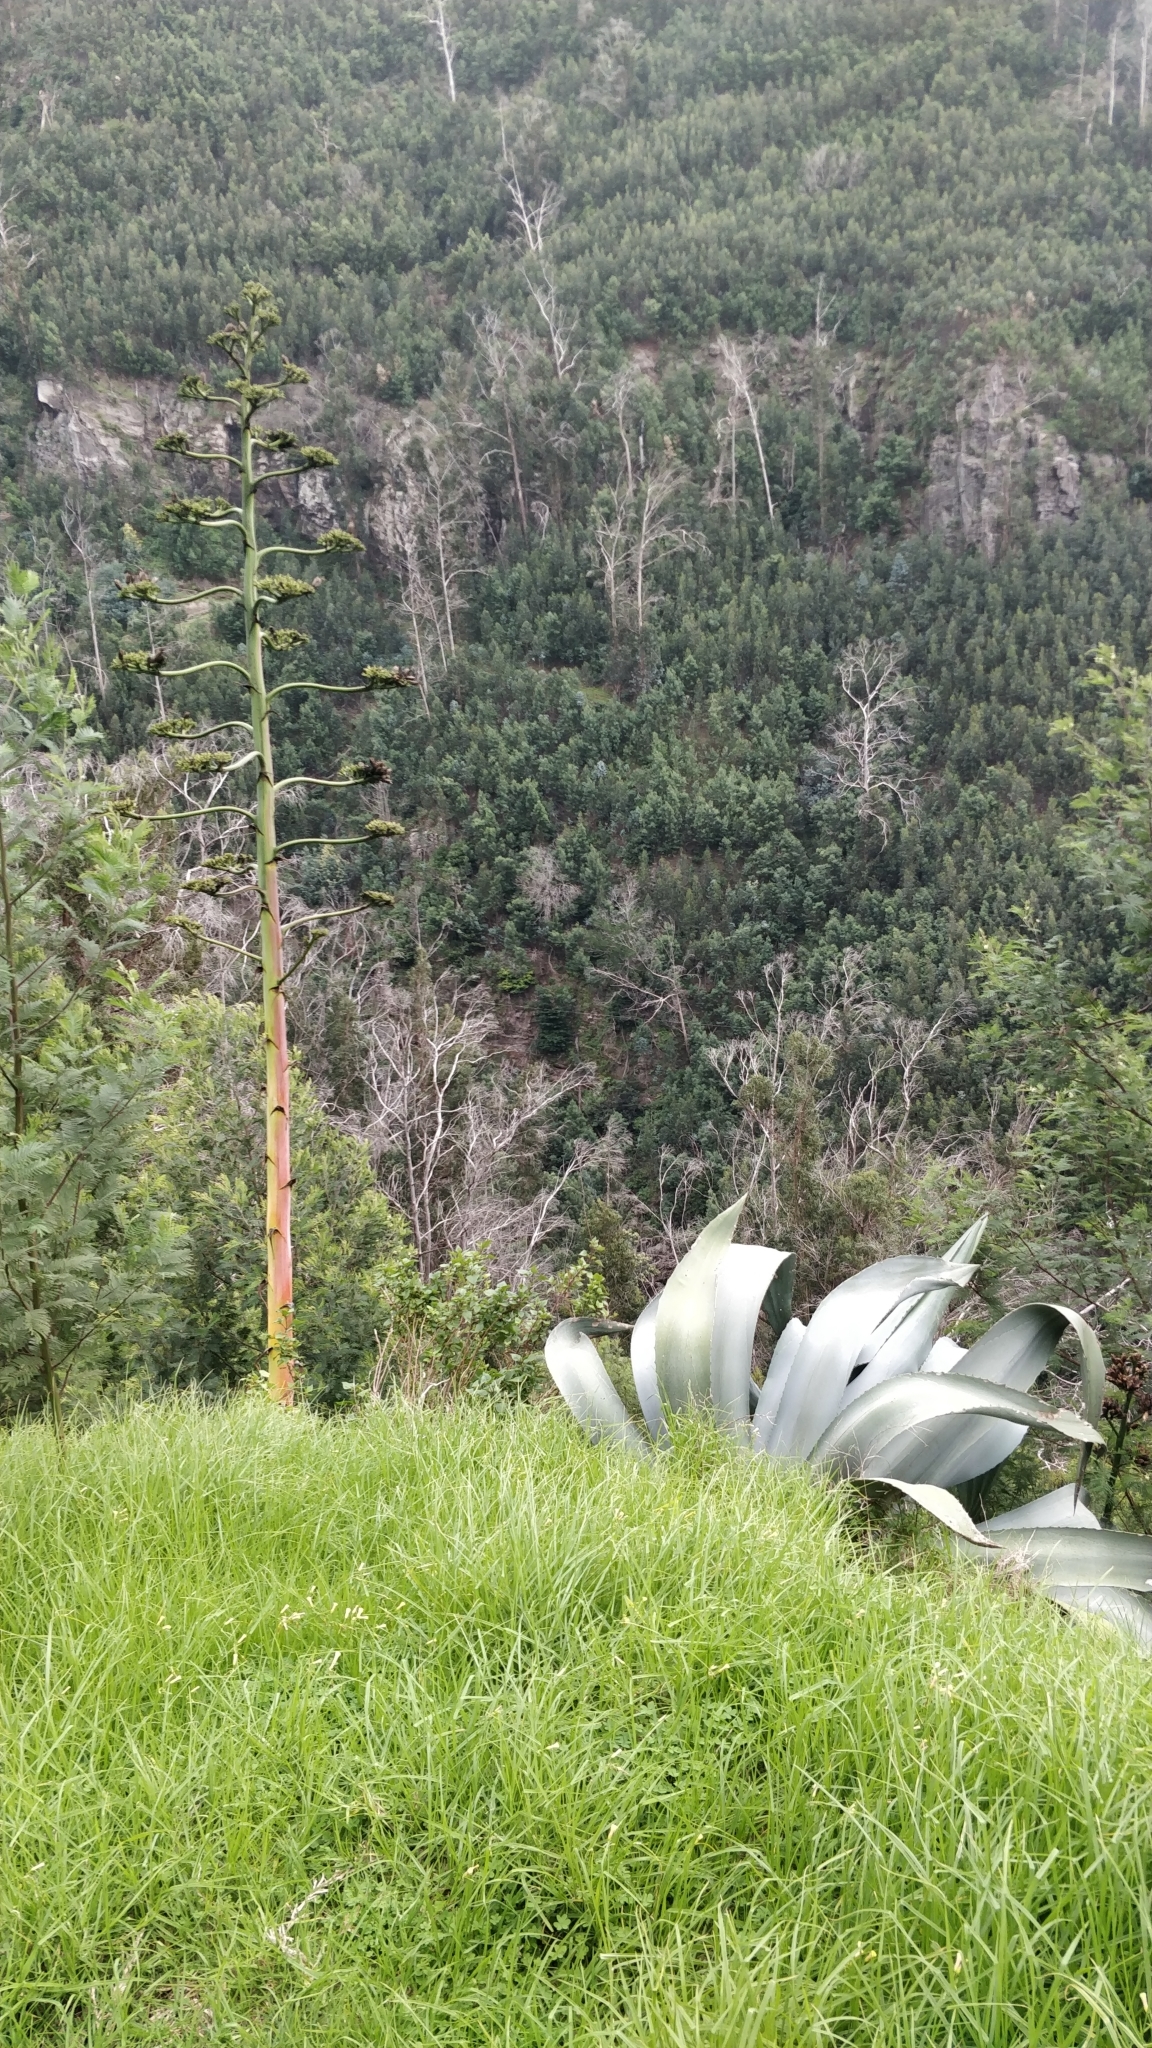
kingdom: Plantae
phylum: Tracheophyta
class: Liliopsida
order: Asparagales
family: Asparagaceae
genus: Agave
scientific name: Agave americana
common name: Centuryplant
